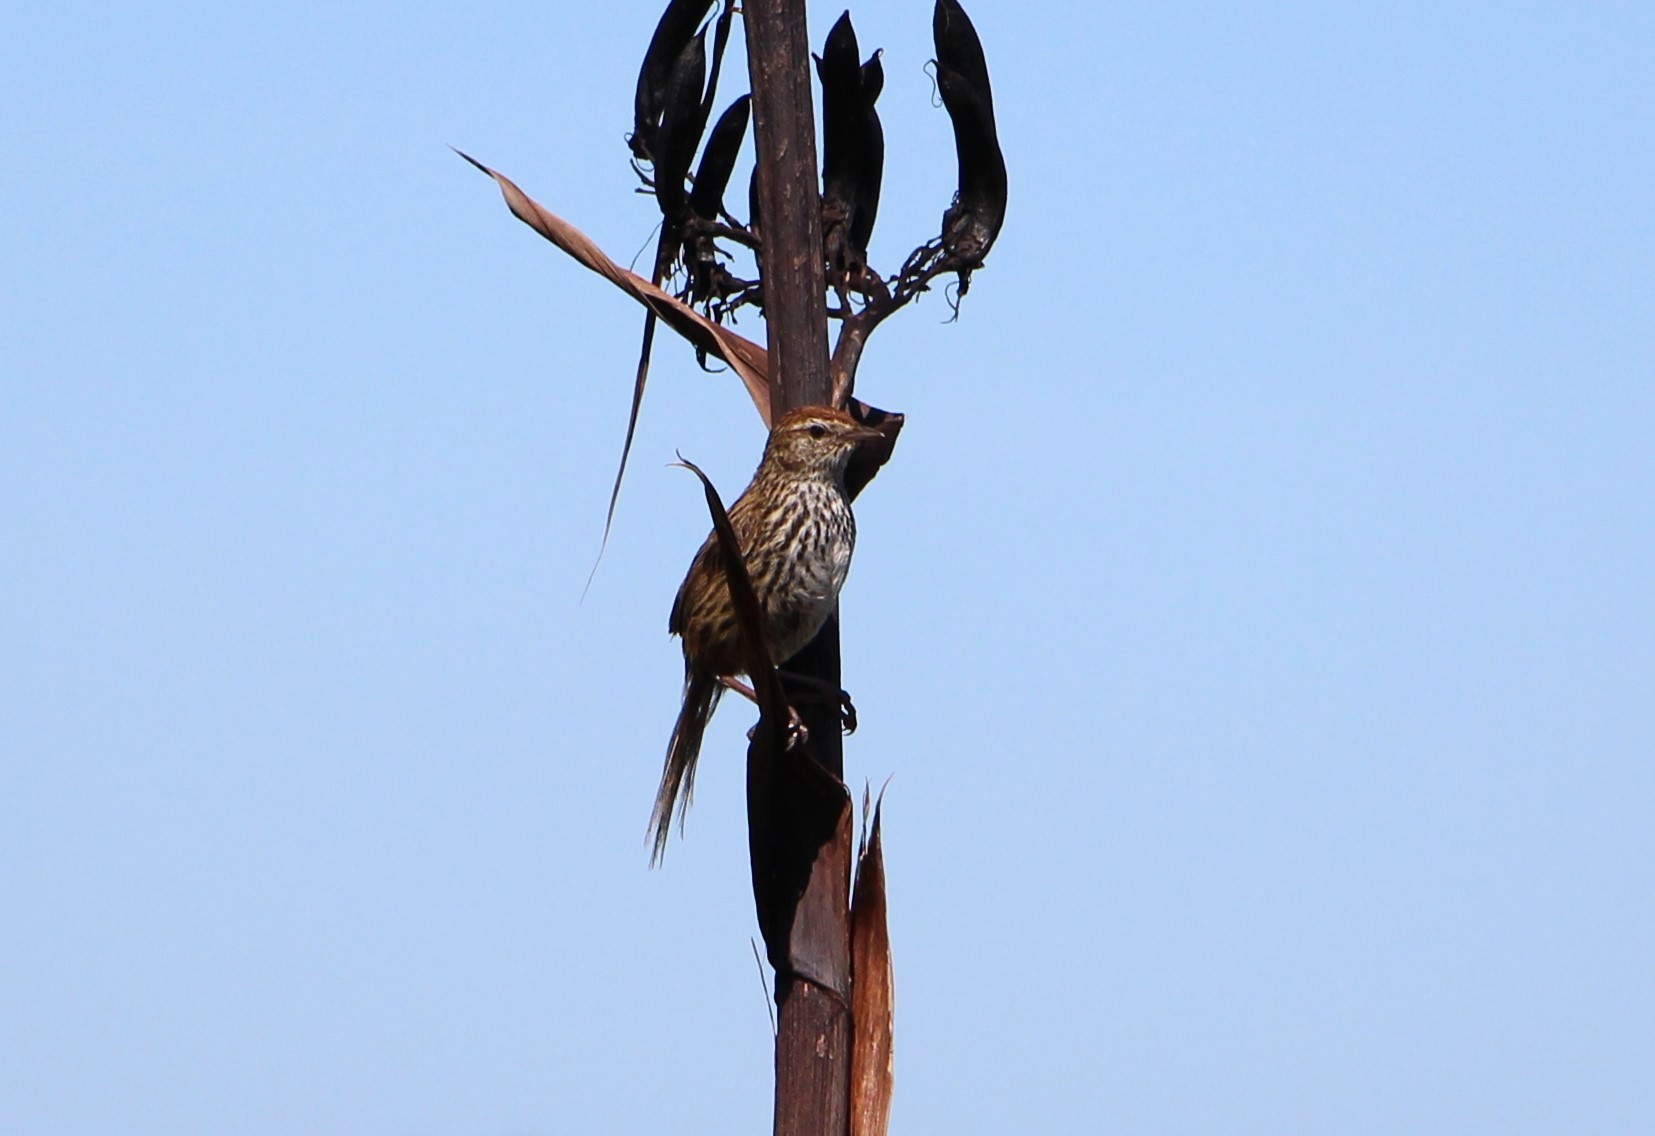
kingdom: Animalia
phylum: Chordata
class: Aves
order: Passeriformes
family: Locustellidae
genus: Poodytes
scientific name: Poodytes punctatus
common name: New zealand fernbird
